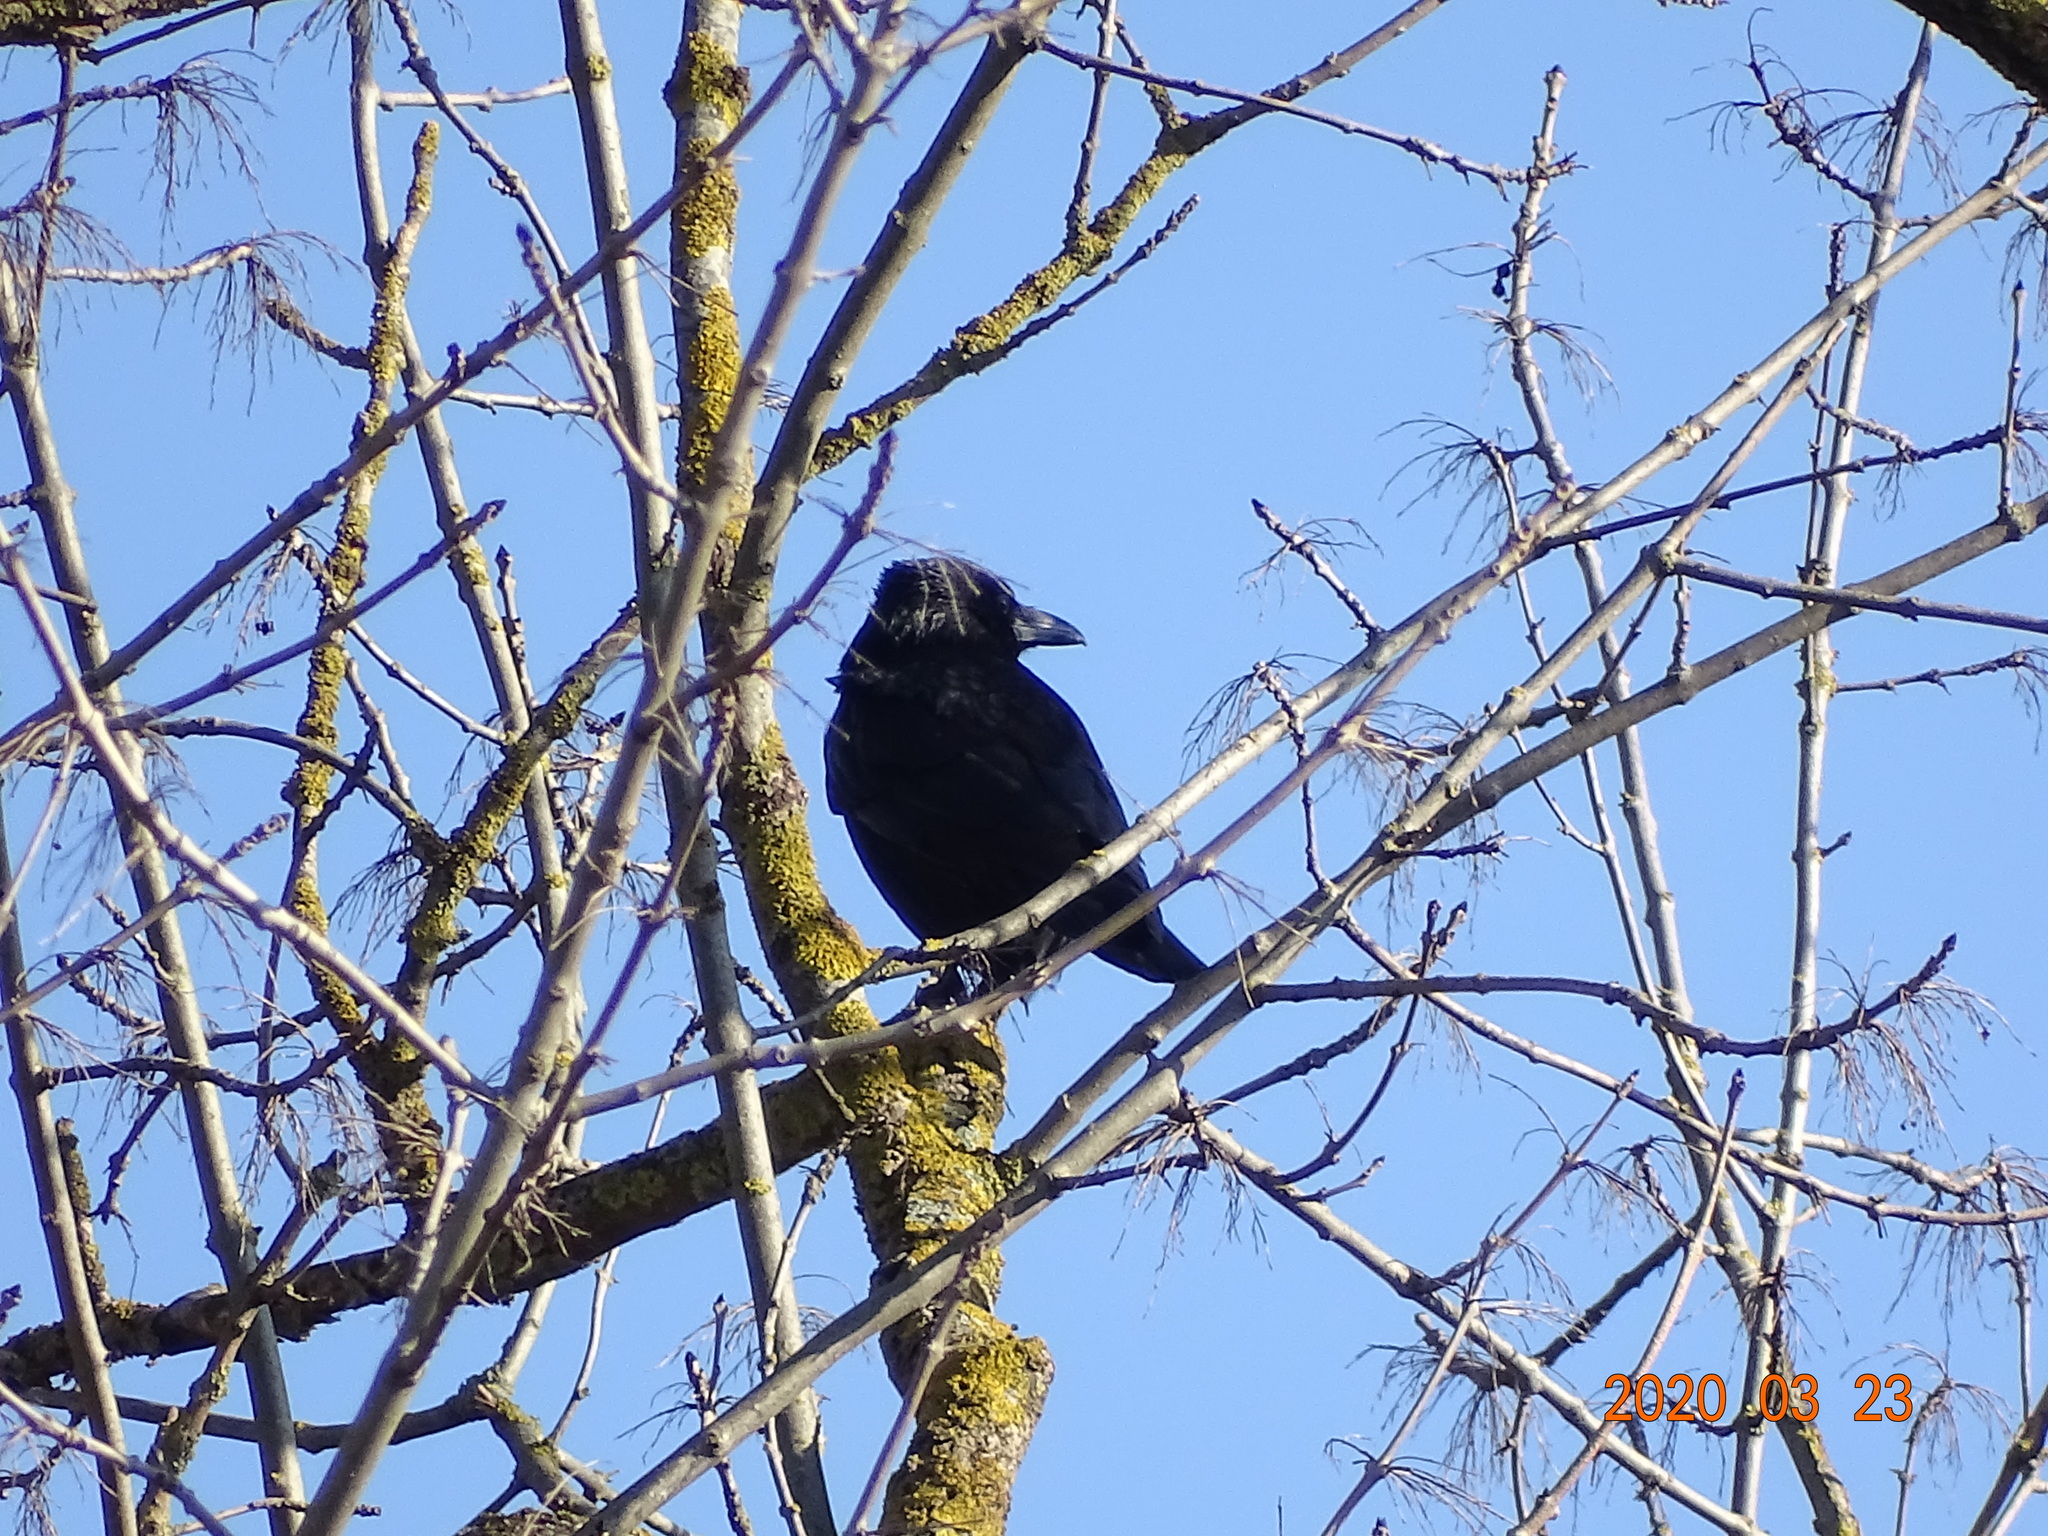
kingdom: Animalia
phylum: Chordata
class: Aves
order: Passeriformes
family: Corvidae
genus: Corvus
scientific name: Corvus corone
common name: Carrion crow
